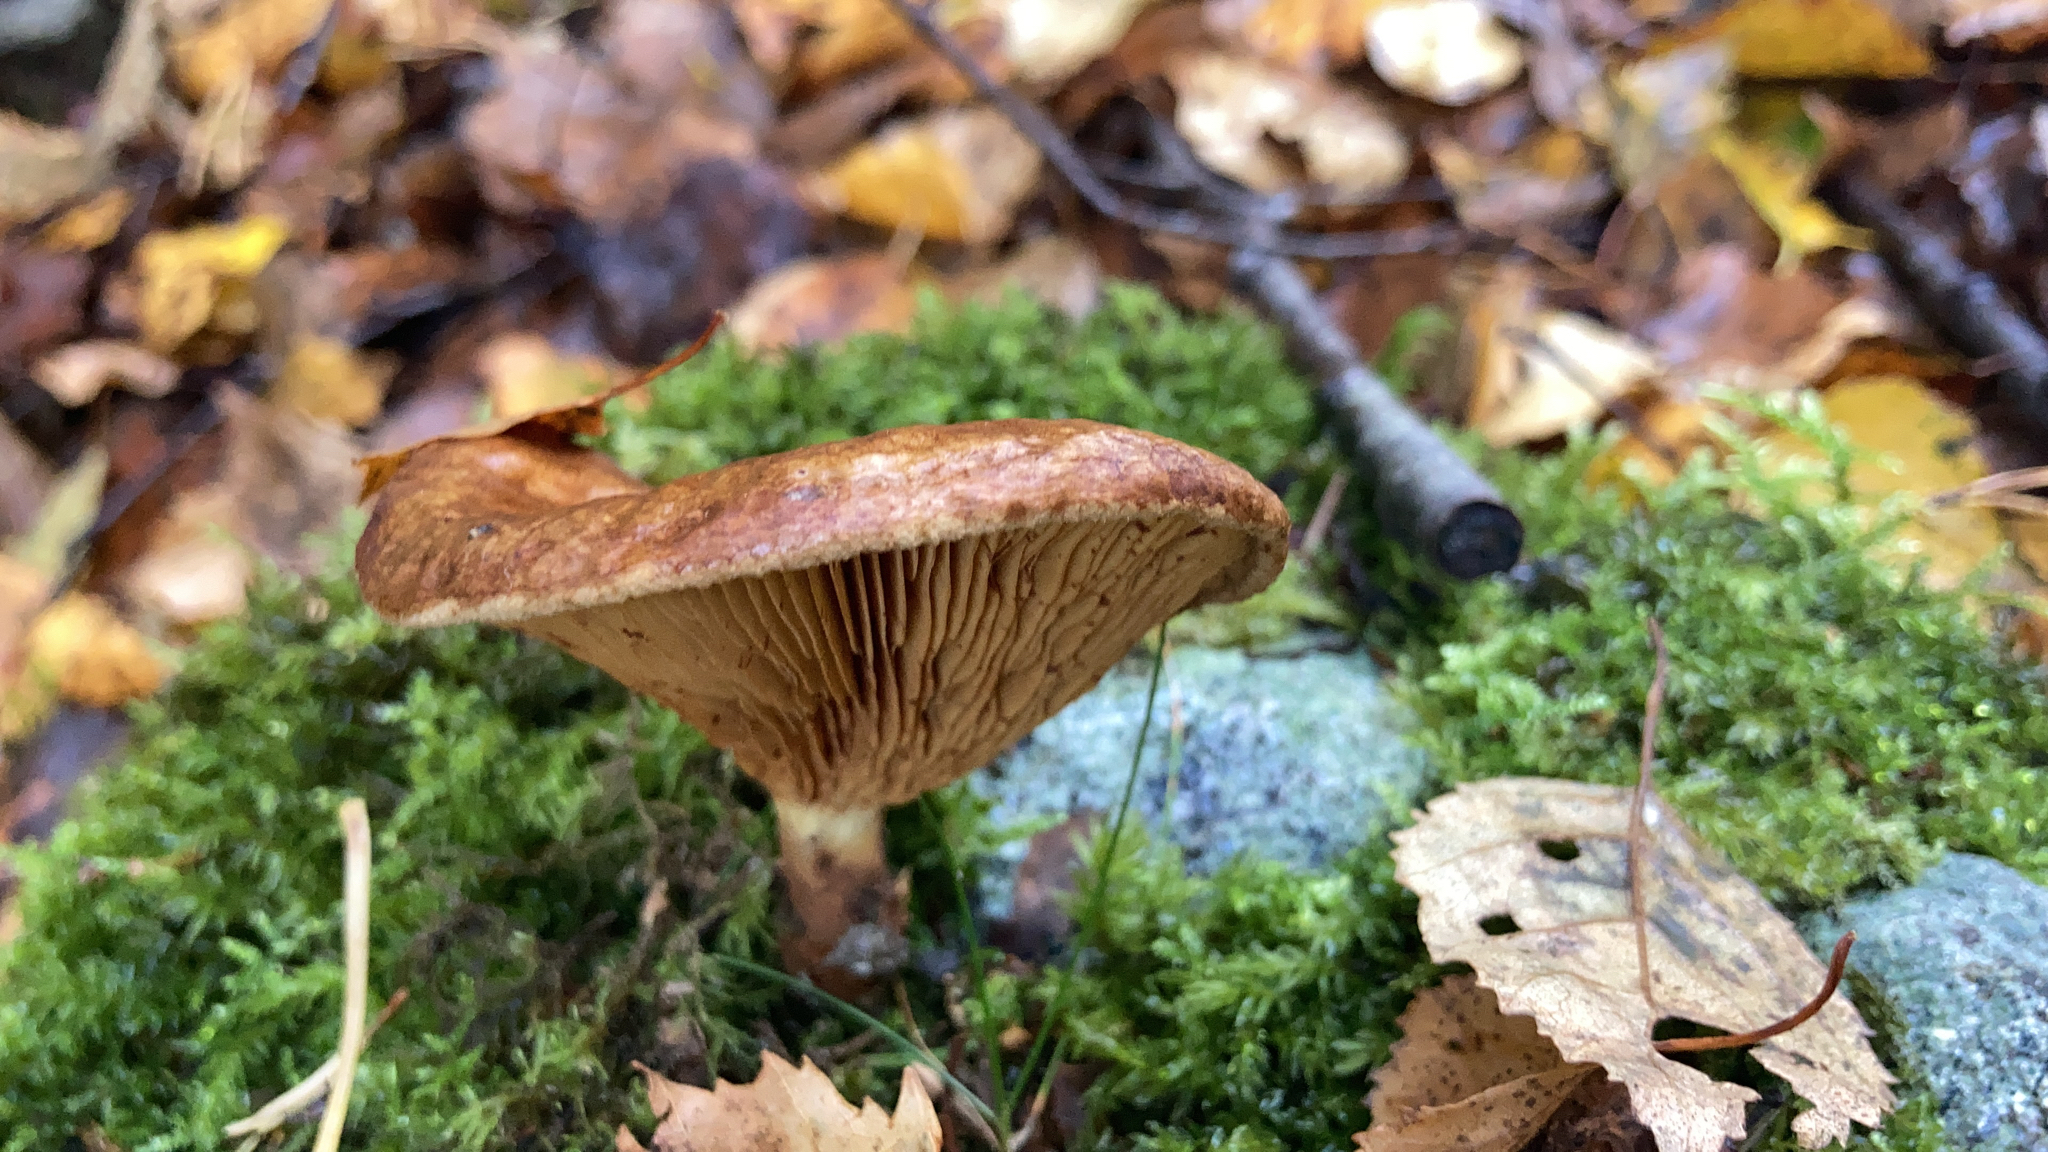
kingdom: Fungi
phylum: Basidiomycota
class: Agaricomycetes
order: Boletales
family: Paxillaceae
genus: Paxillus
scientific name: Paxillus involutus
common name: Brown roll rim
